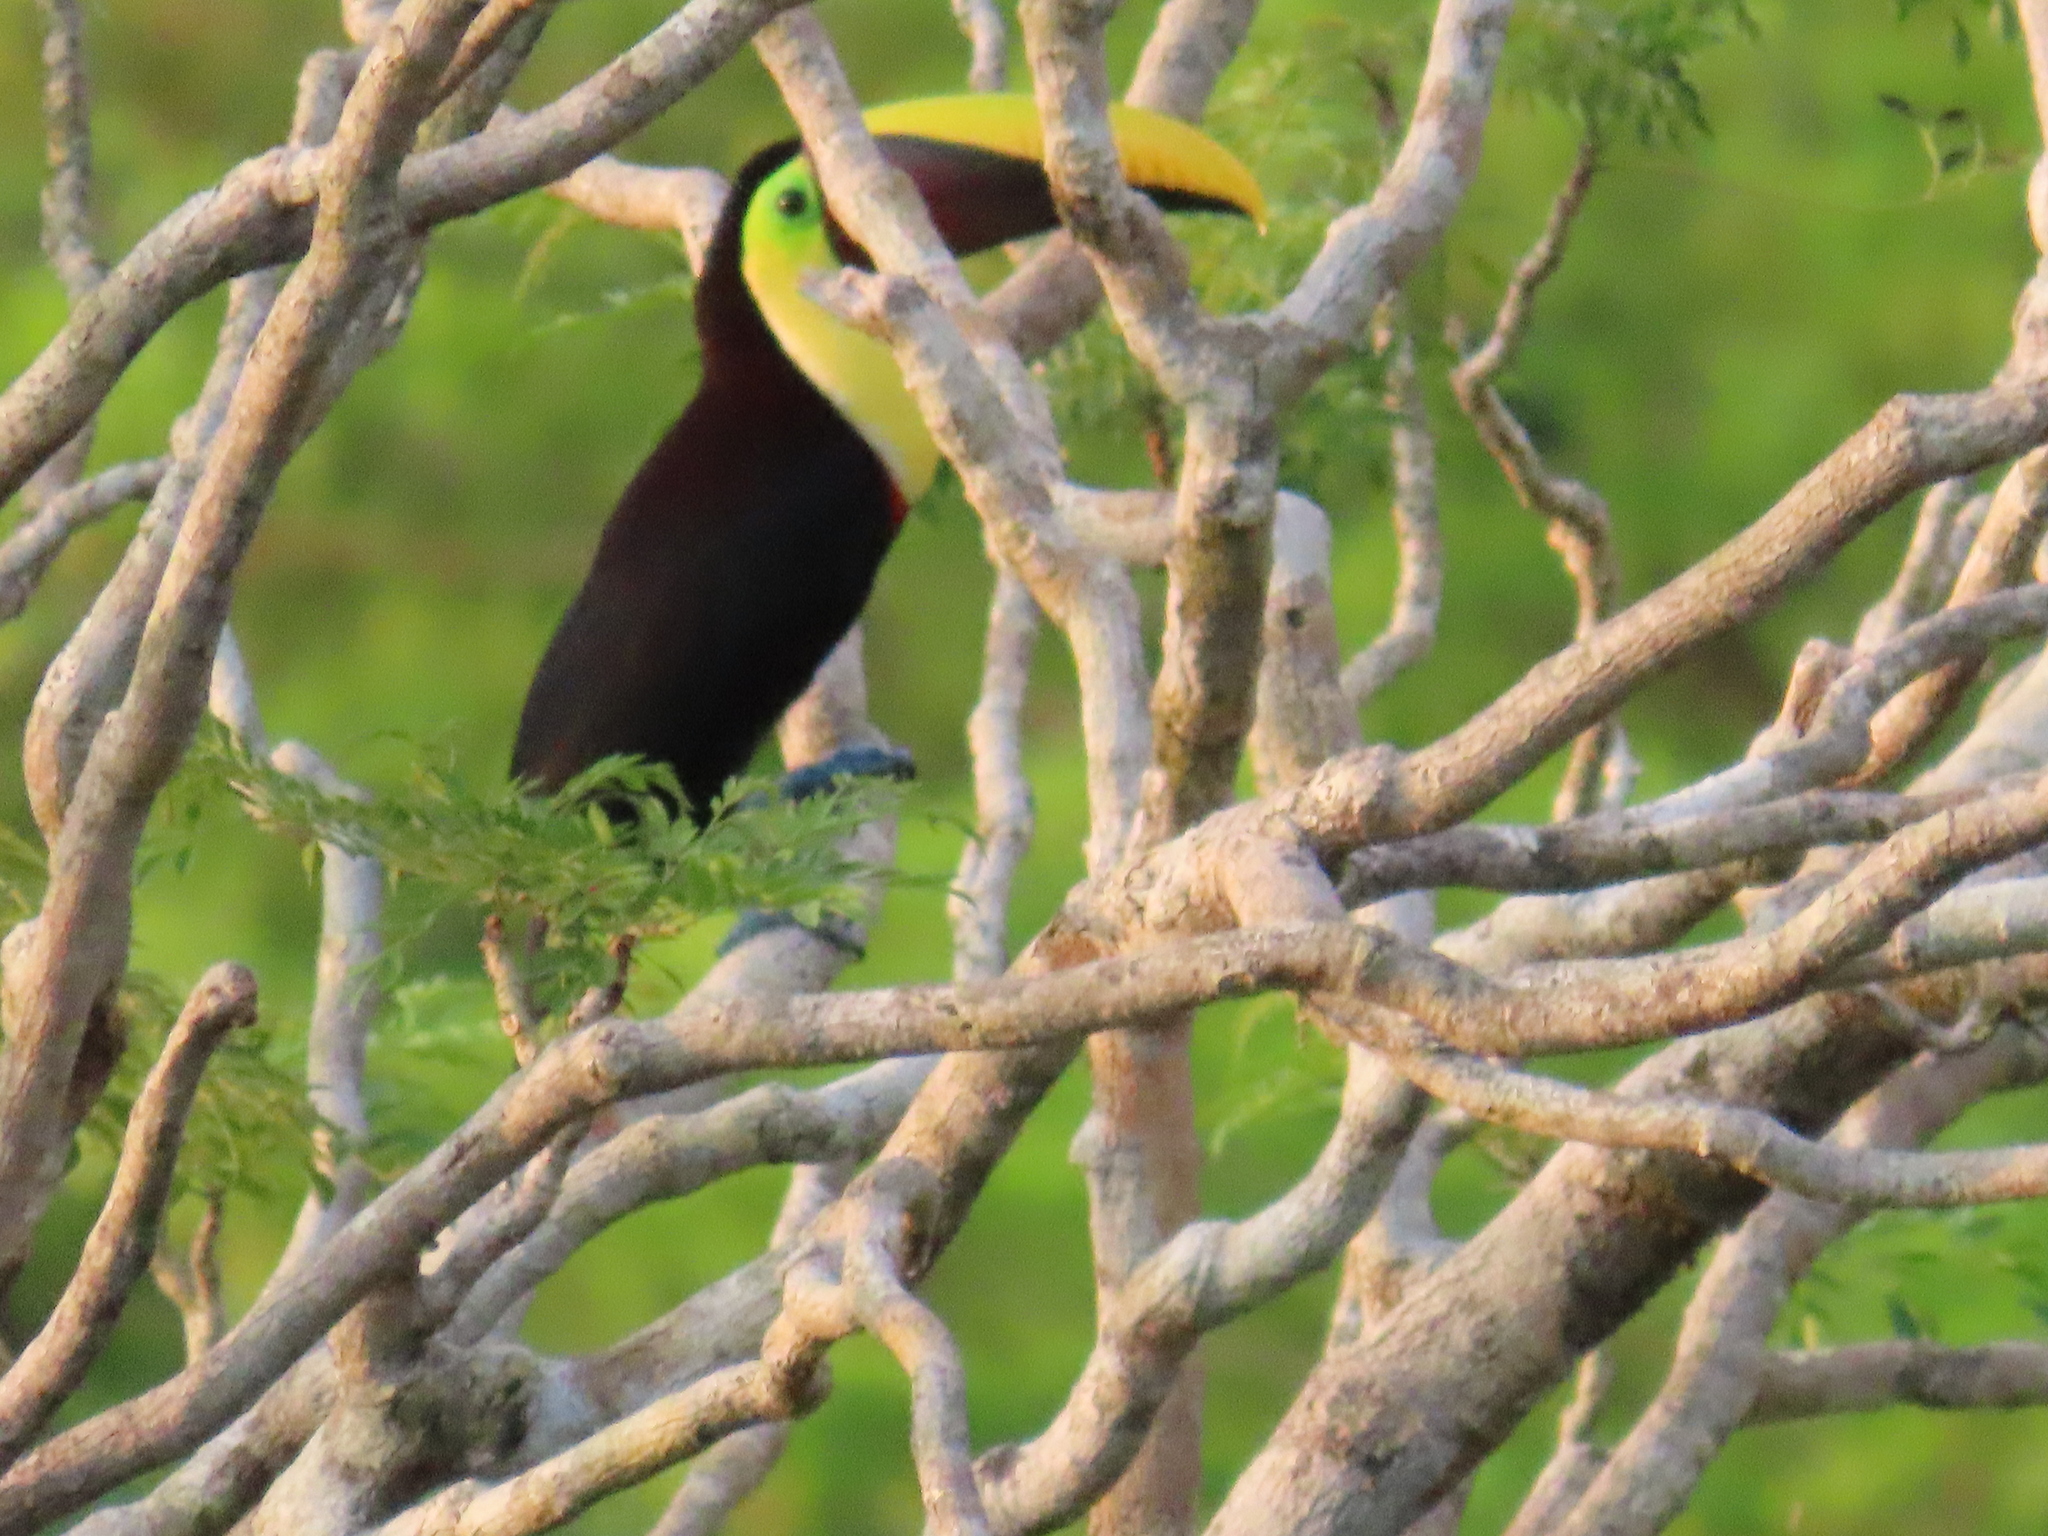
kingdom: Animalia
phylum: Chordata
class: Aves
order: Piciformes
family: Ramphastidae
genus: Ramphastos
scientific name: Ramphastos ambiguus
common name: Yellow-throated toucan
